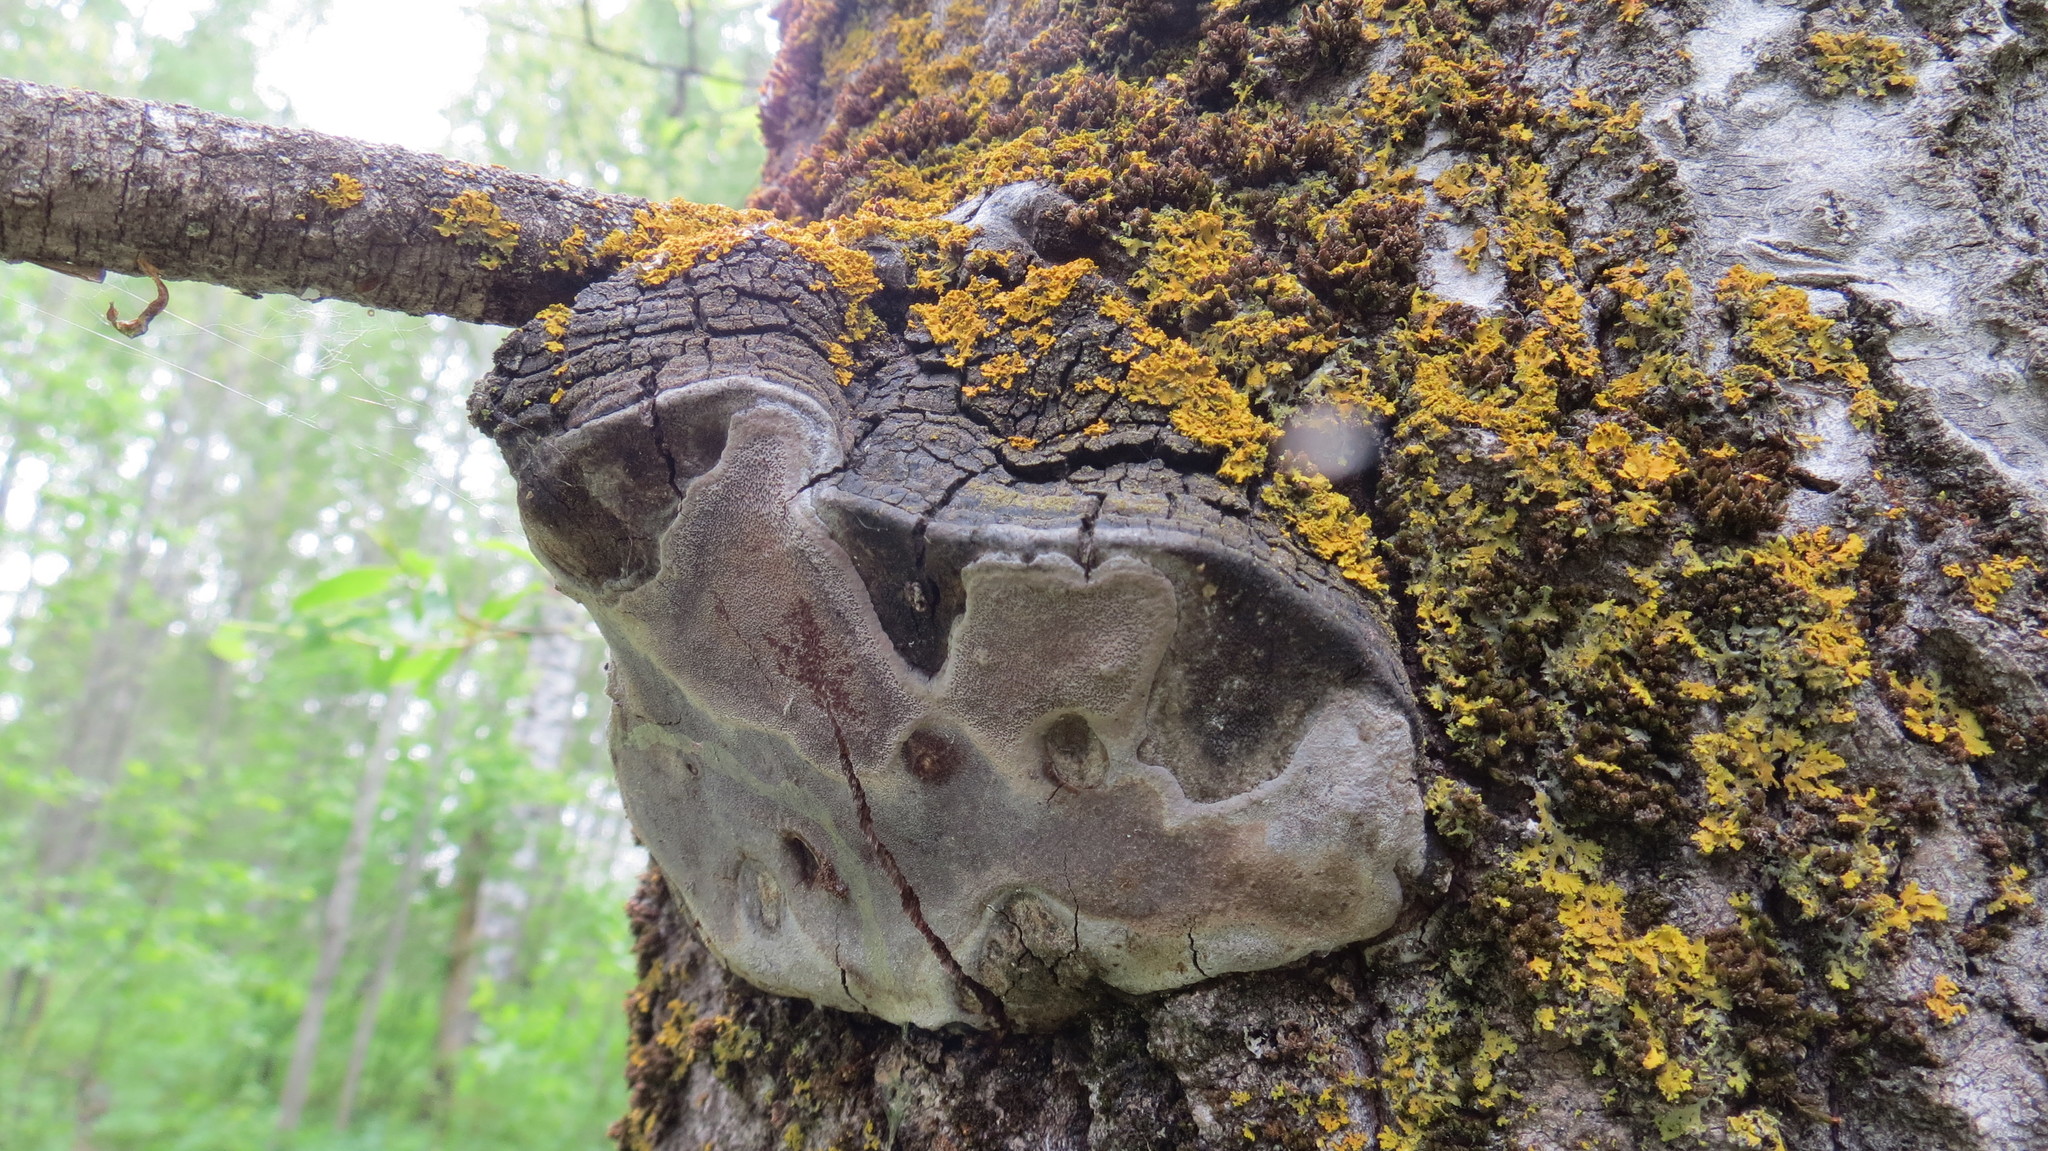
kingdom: Fungi
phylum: Basidiomycota
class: Agaricomycetes
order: Hymenochaetales
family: Hymenochaetaceae
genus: Phellinus
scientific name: Phellinus tremulae
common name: Aspen bracket
